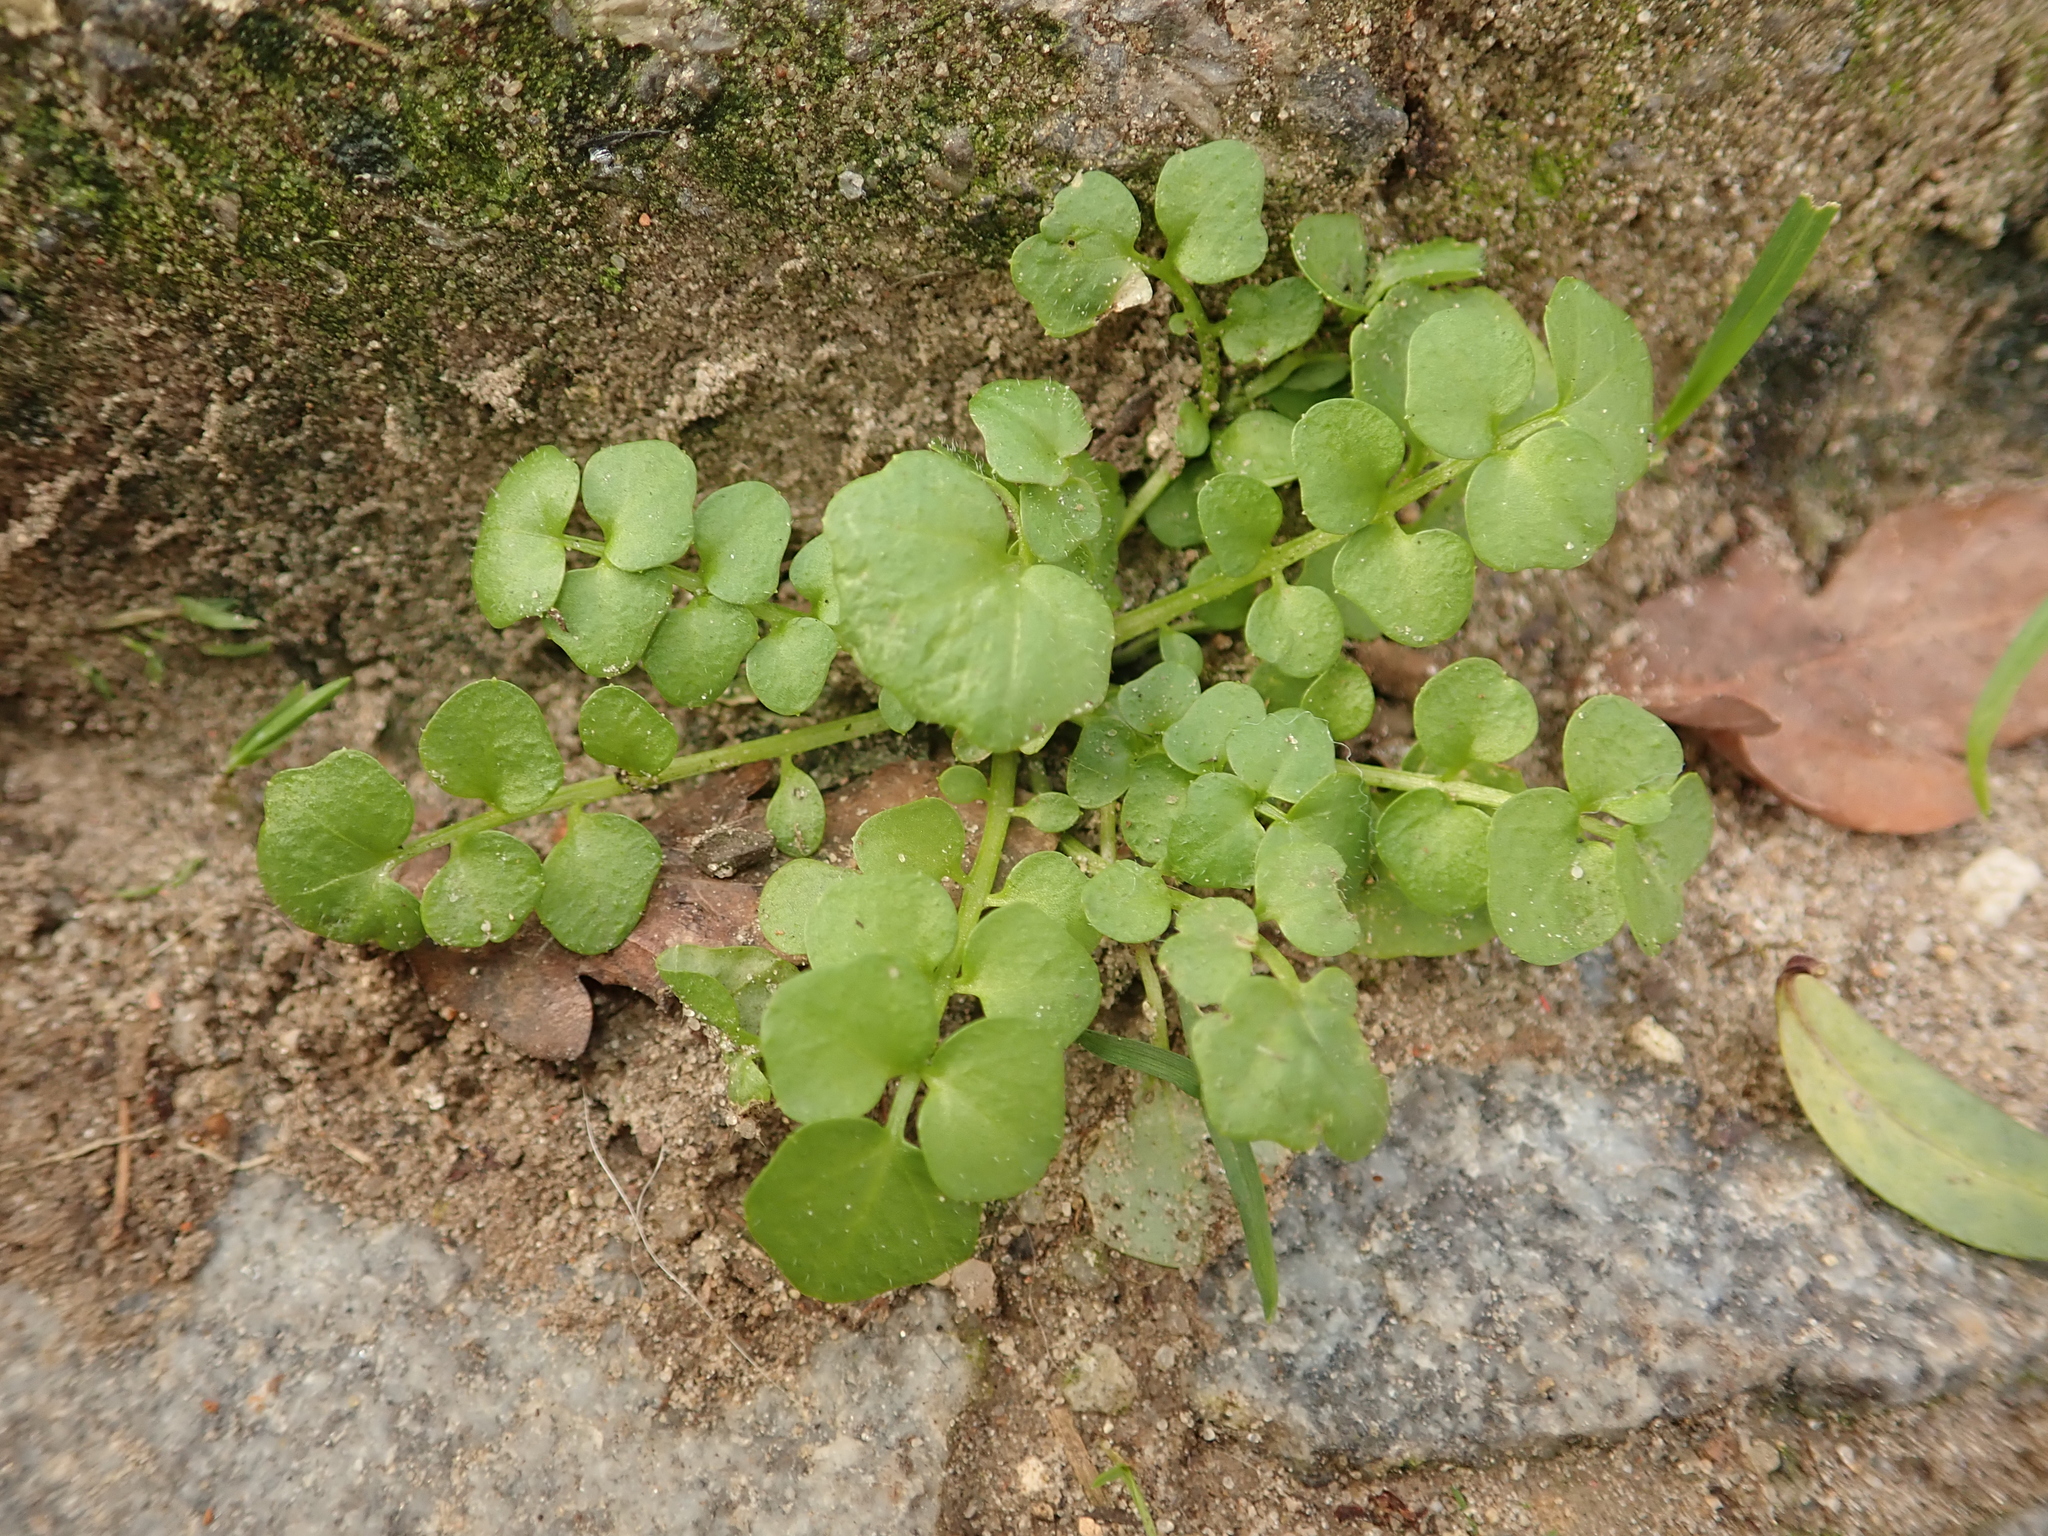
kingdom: Plantae
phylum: Tracheophyta
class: Magnoliopsida
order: Brassicales
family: Brassicaceae
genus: Cardamine
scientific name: Cardamine hirsuta
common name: Hairy bittercress
